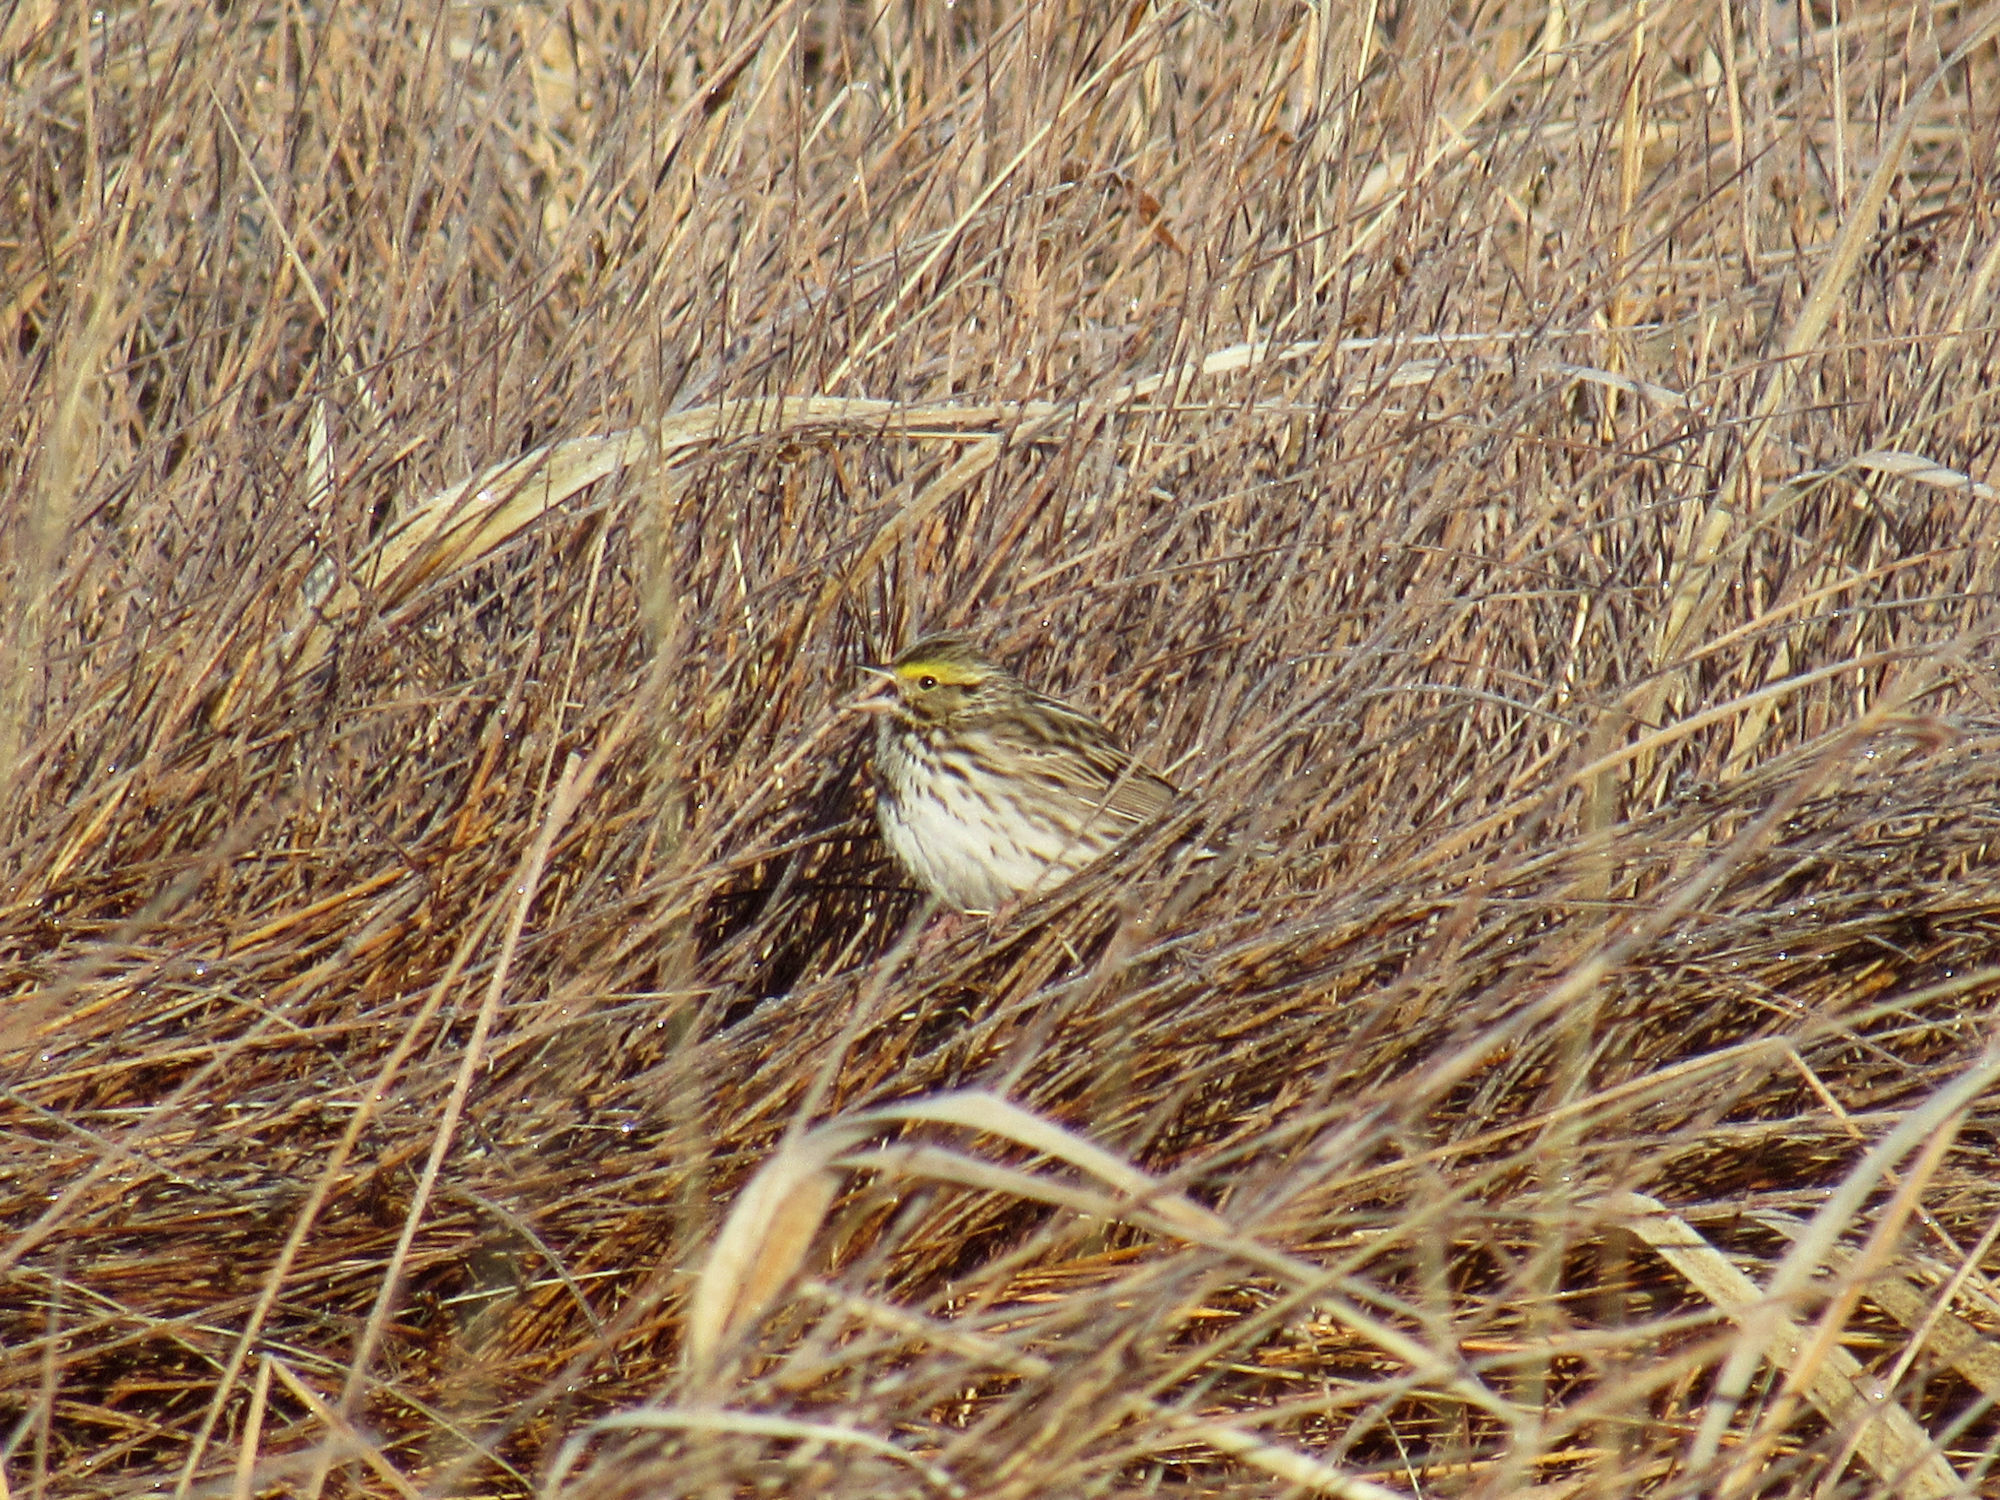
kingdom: Animalia
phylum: Chordata
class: Aves
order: Passeriformes
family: Passerellidae
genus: Passerculus
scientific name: Passerculus sandwichensis
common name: Savannah sparrow
